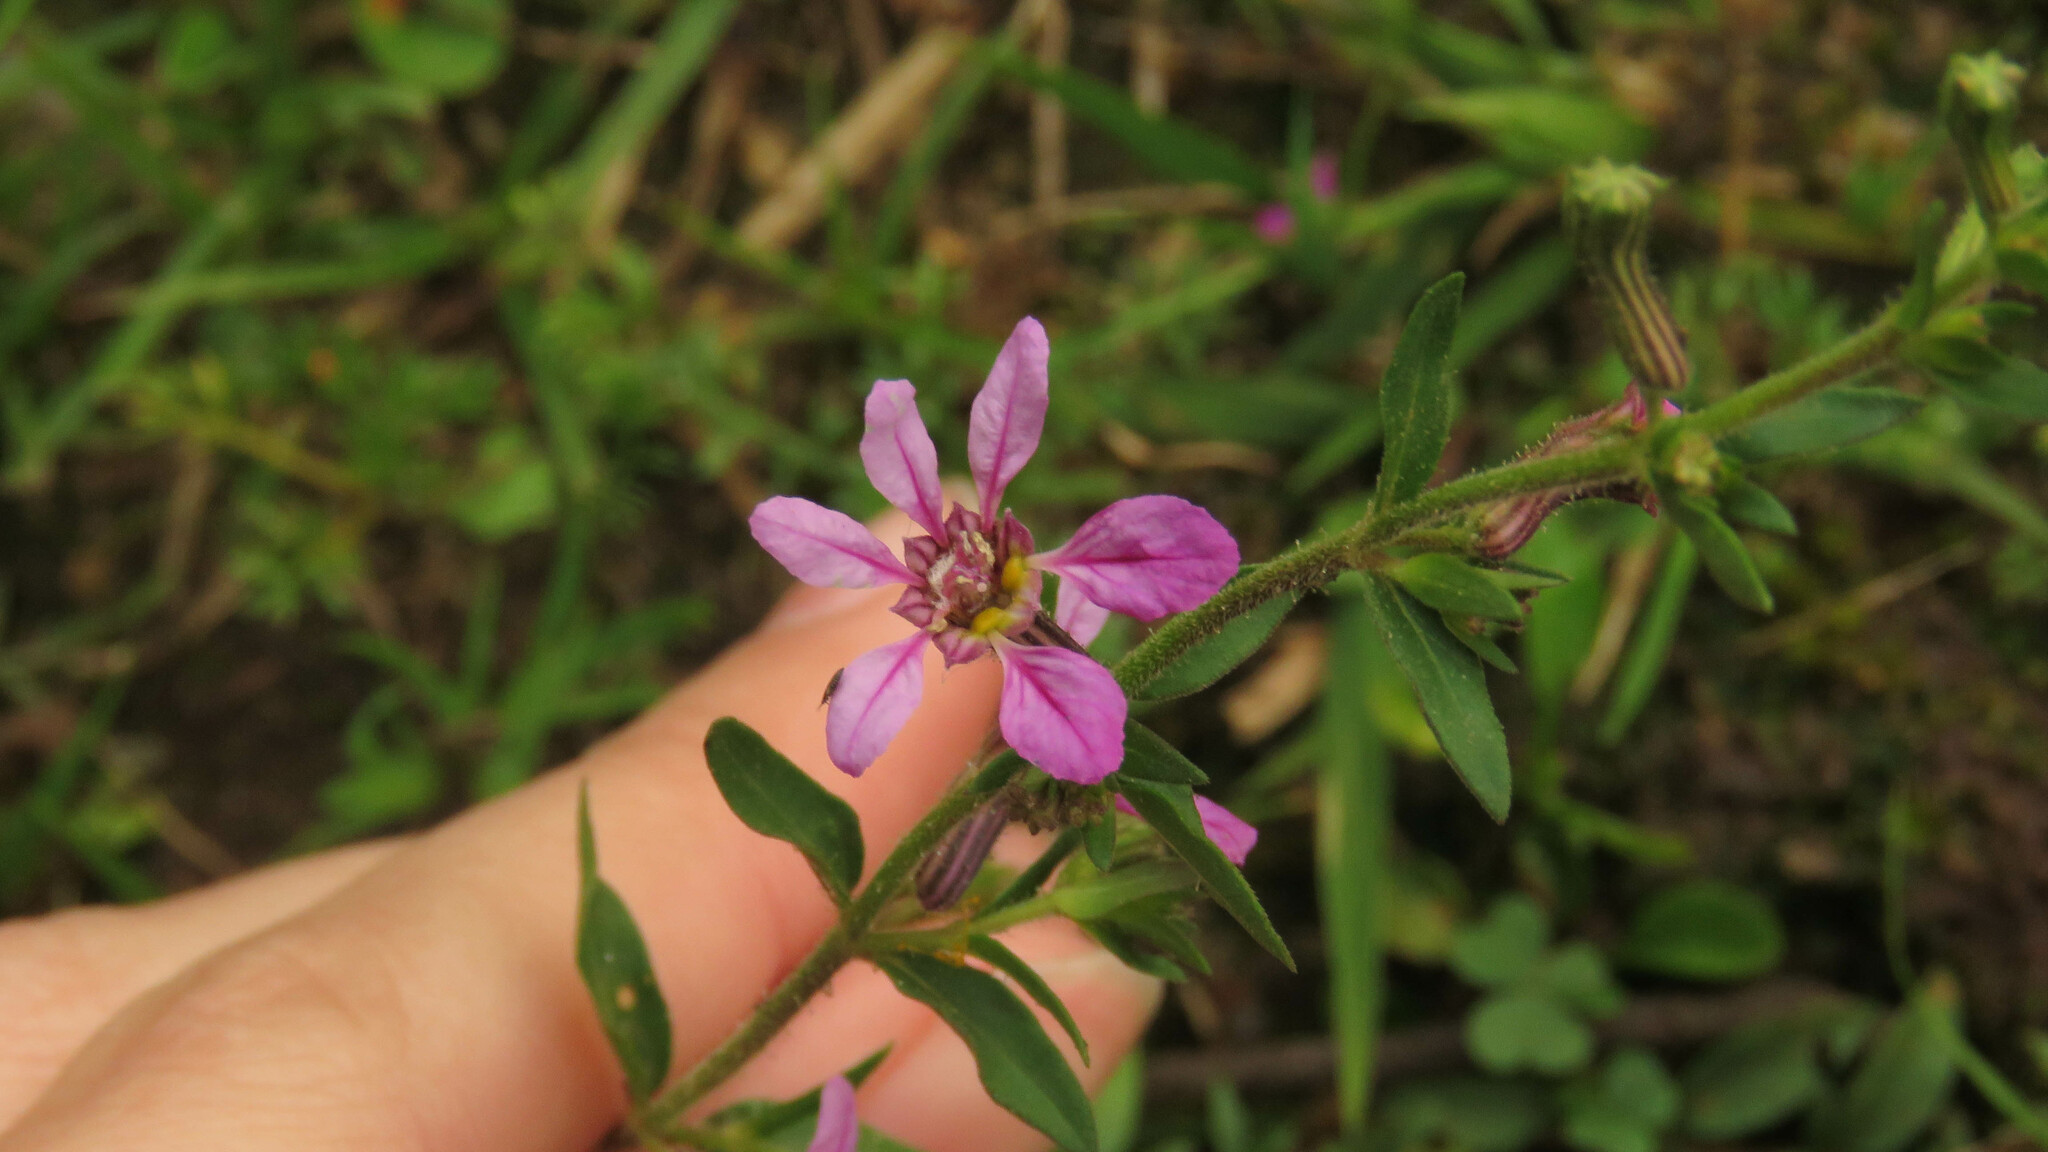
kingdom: Plantae
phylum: Tracheophyta
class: Magnoliopsida
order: Myrtales
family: Lythraceae
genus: Cuphea
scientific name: Cuphea glutinosa
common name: Sticky waxweed
